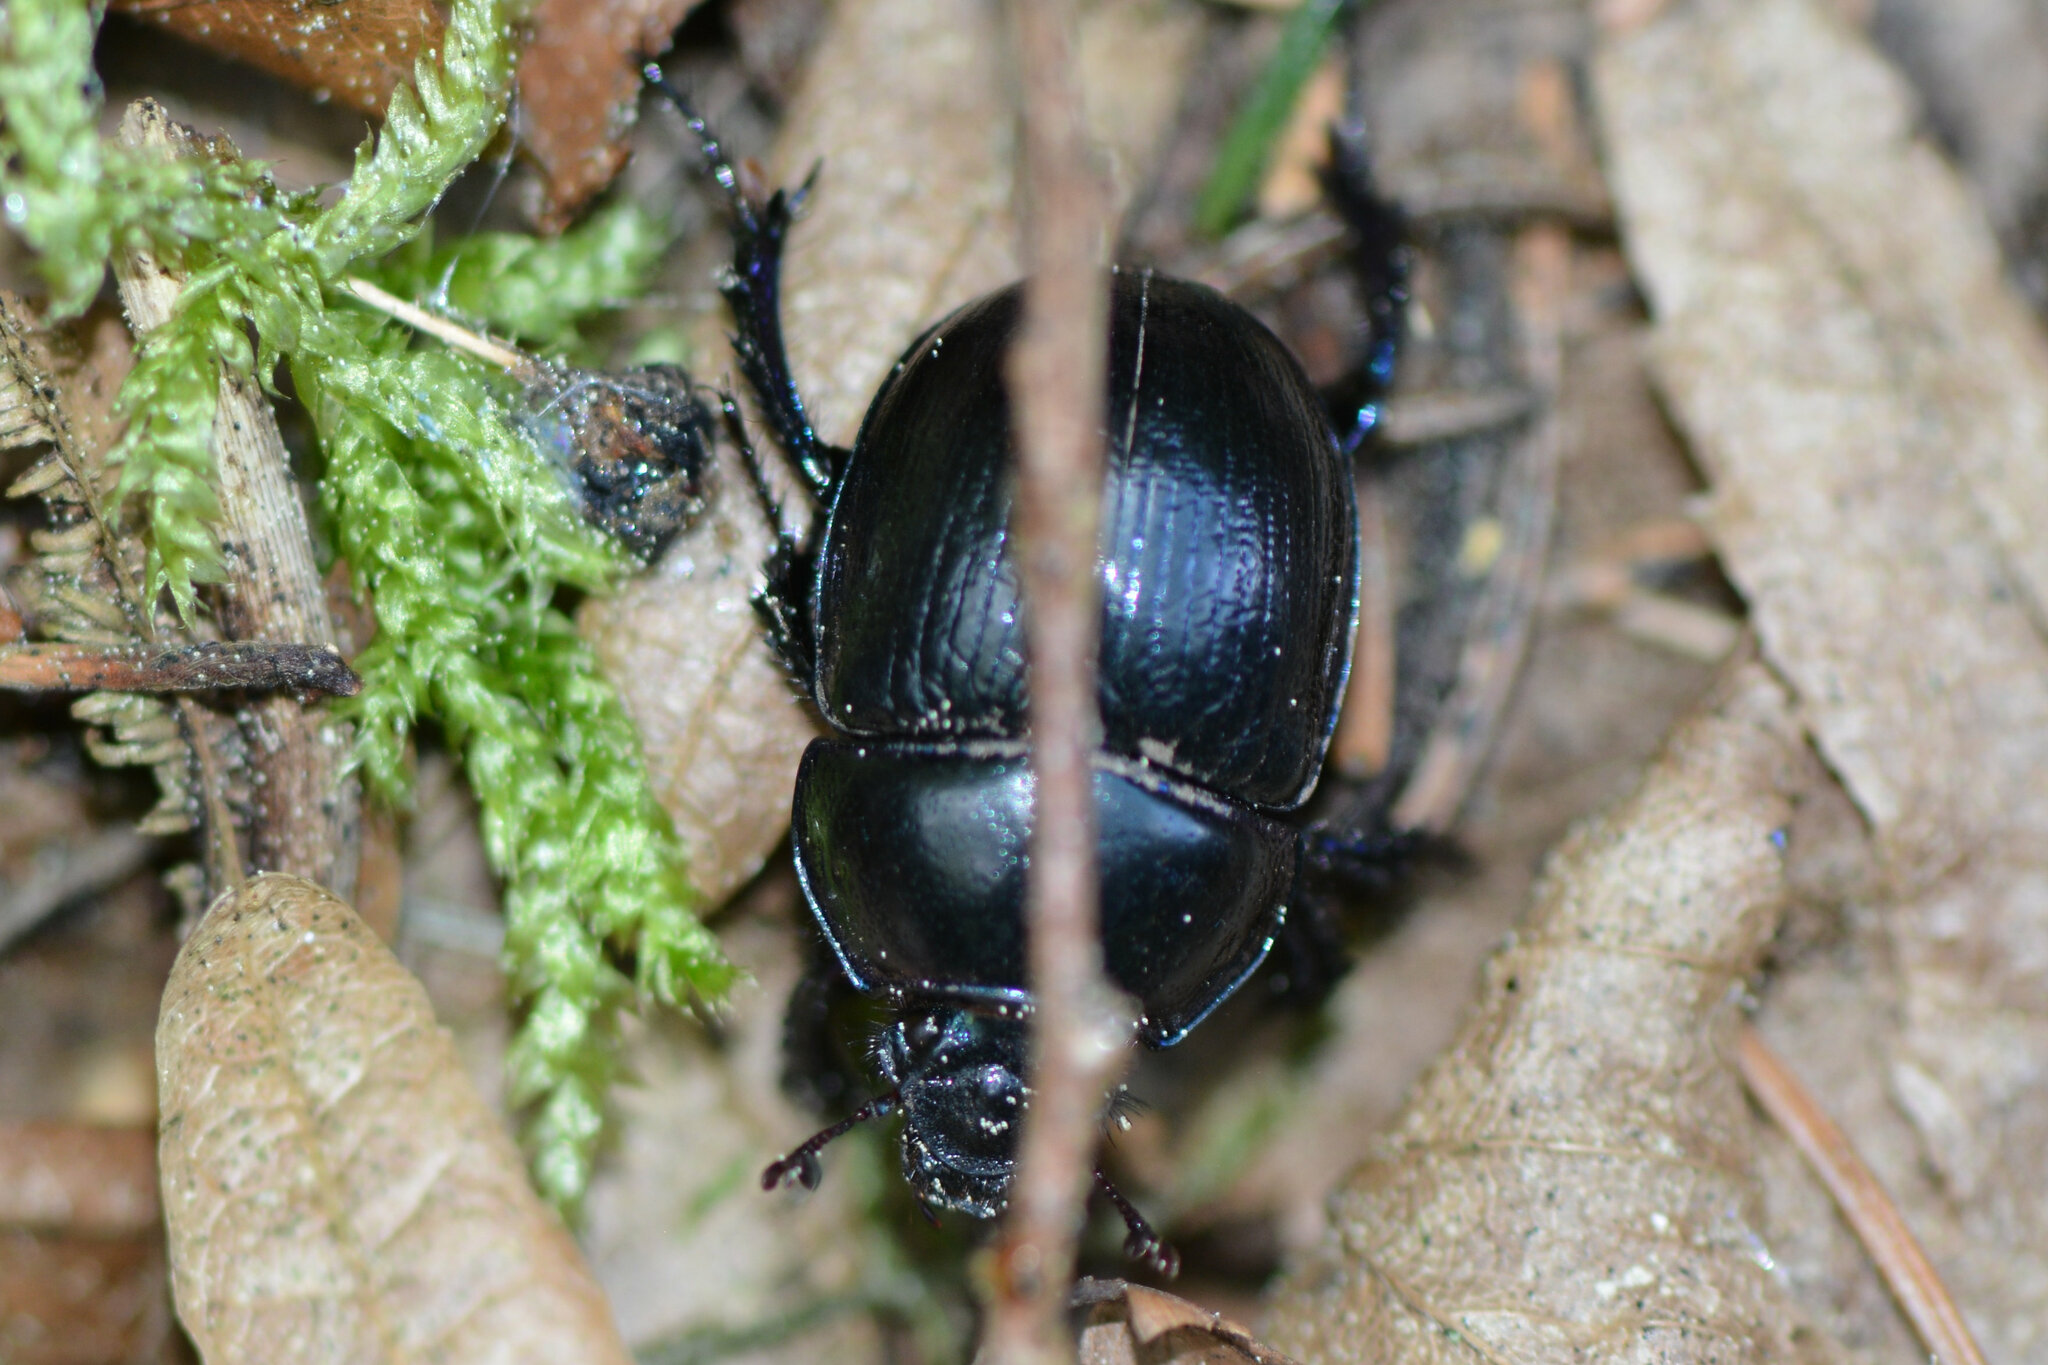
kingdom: Animalia
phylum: Arthropoda
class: Insecta
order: Coleoptera
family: Geotrupidae
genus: Anoplotrupes
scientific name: Anoplotrupes stercorosus
